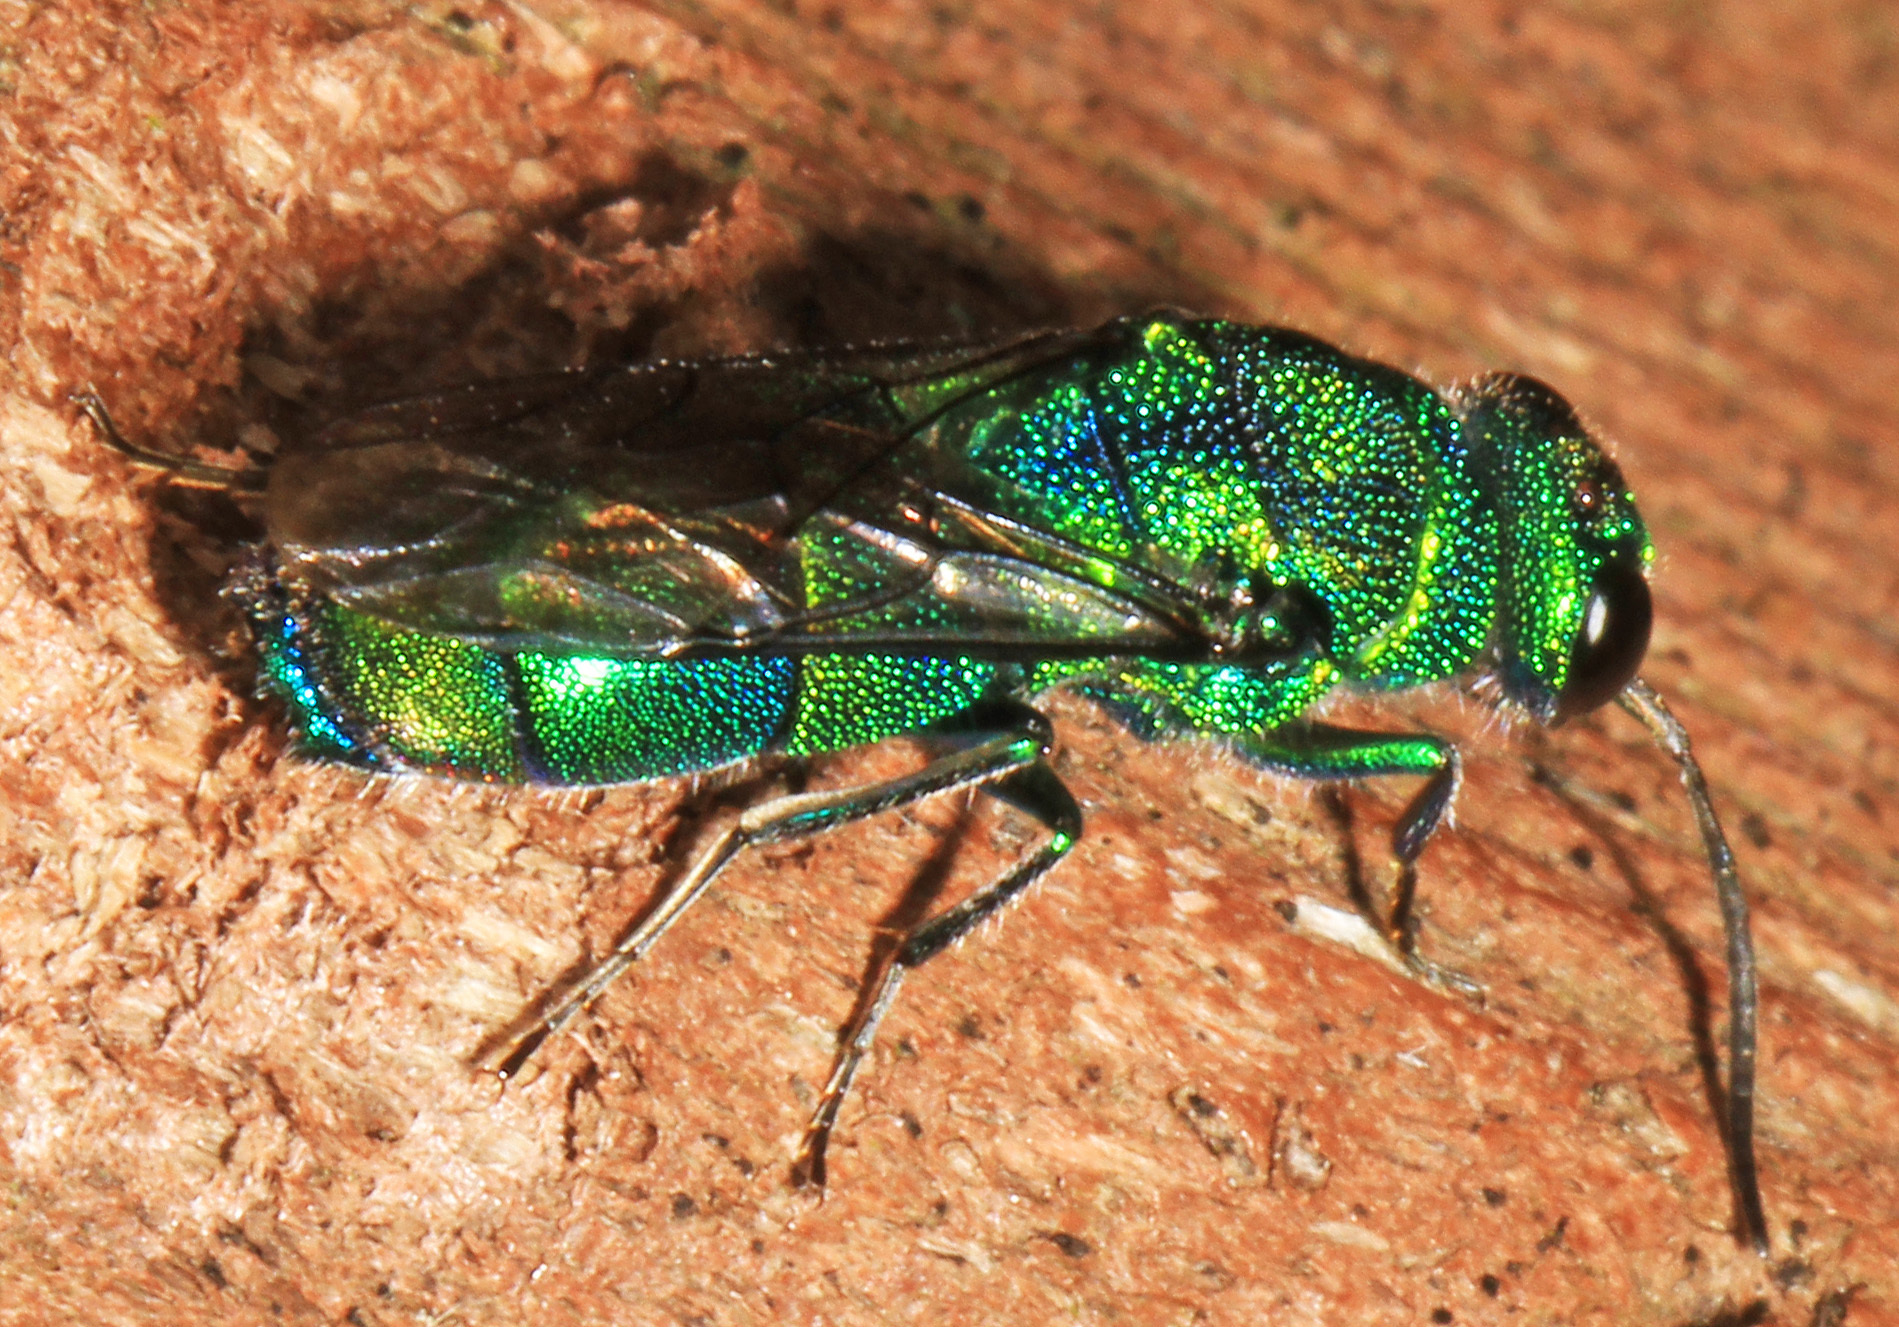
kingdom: Animalia
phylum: Arthropoda
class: Insecta
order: Hymenoptera
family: Chrysididae
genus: Chrysis
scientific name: Chrysis
